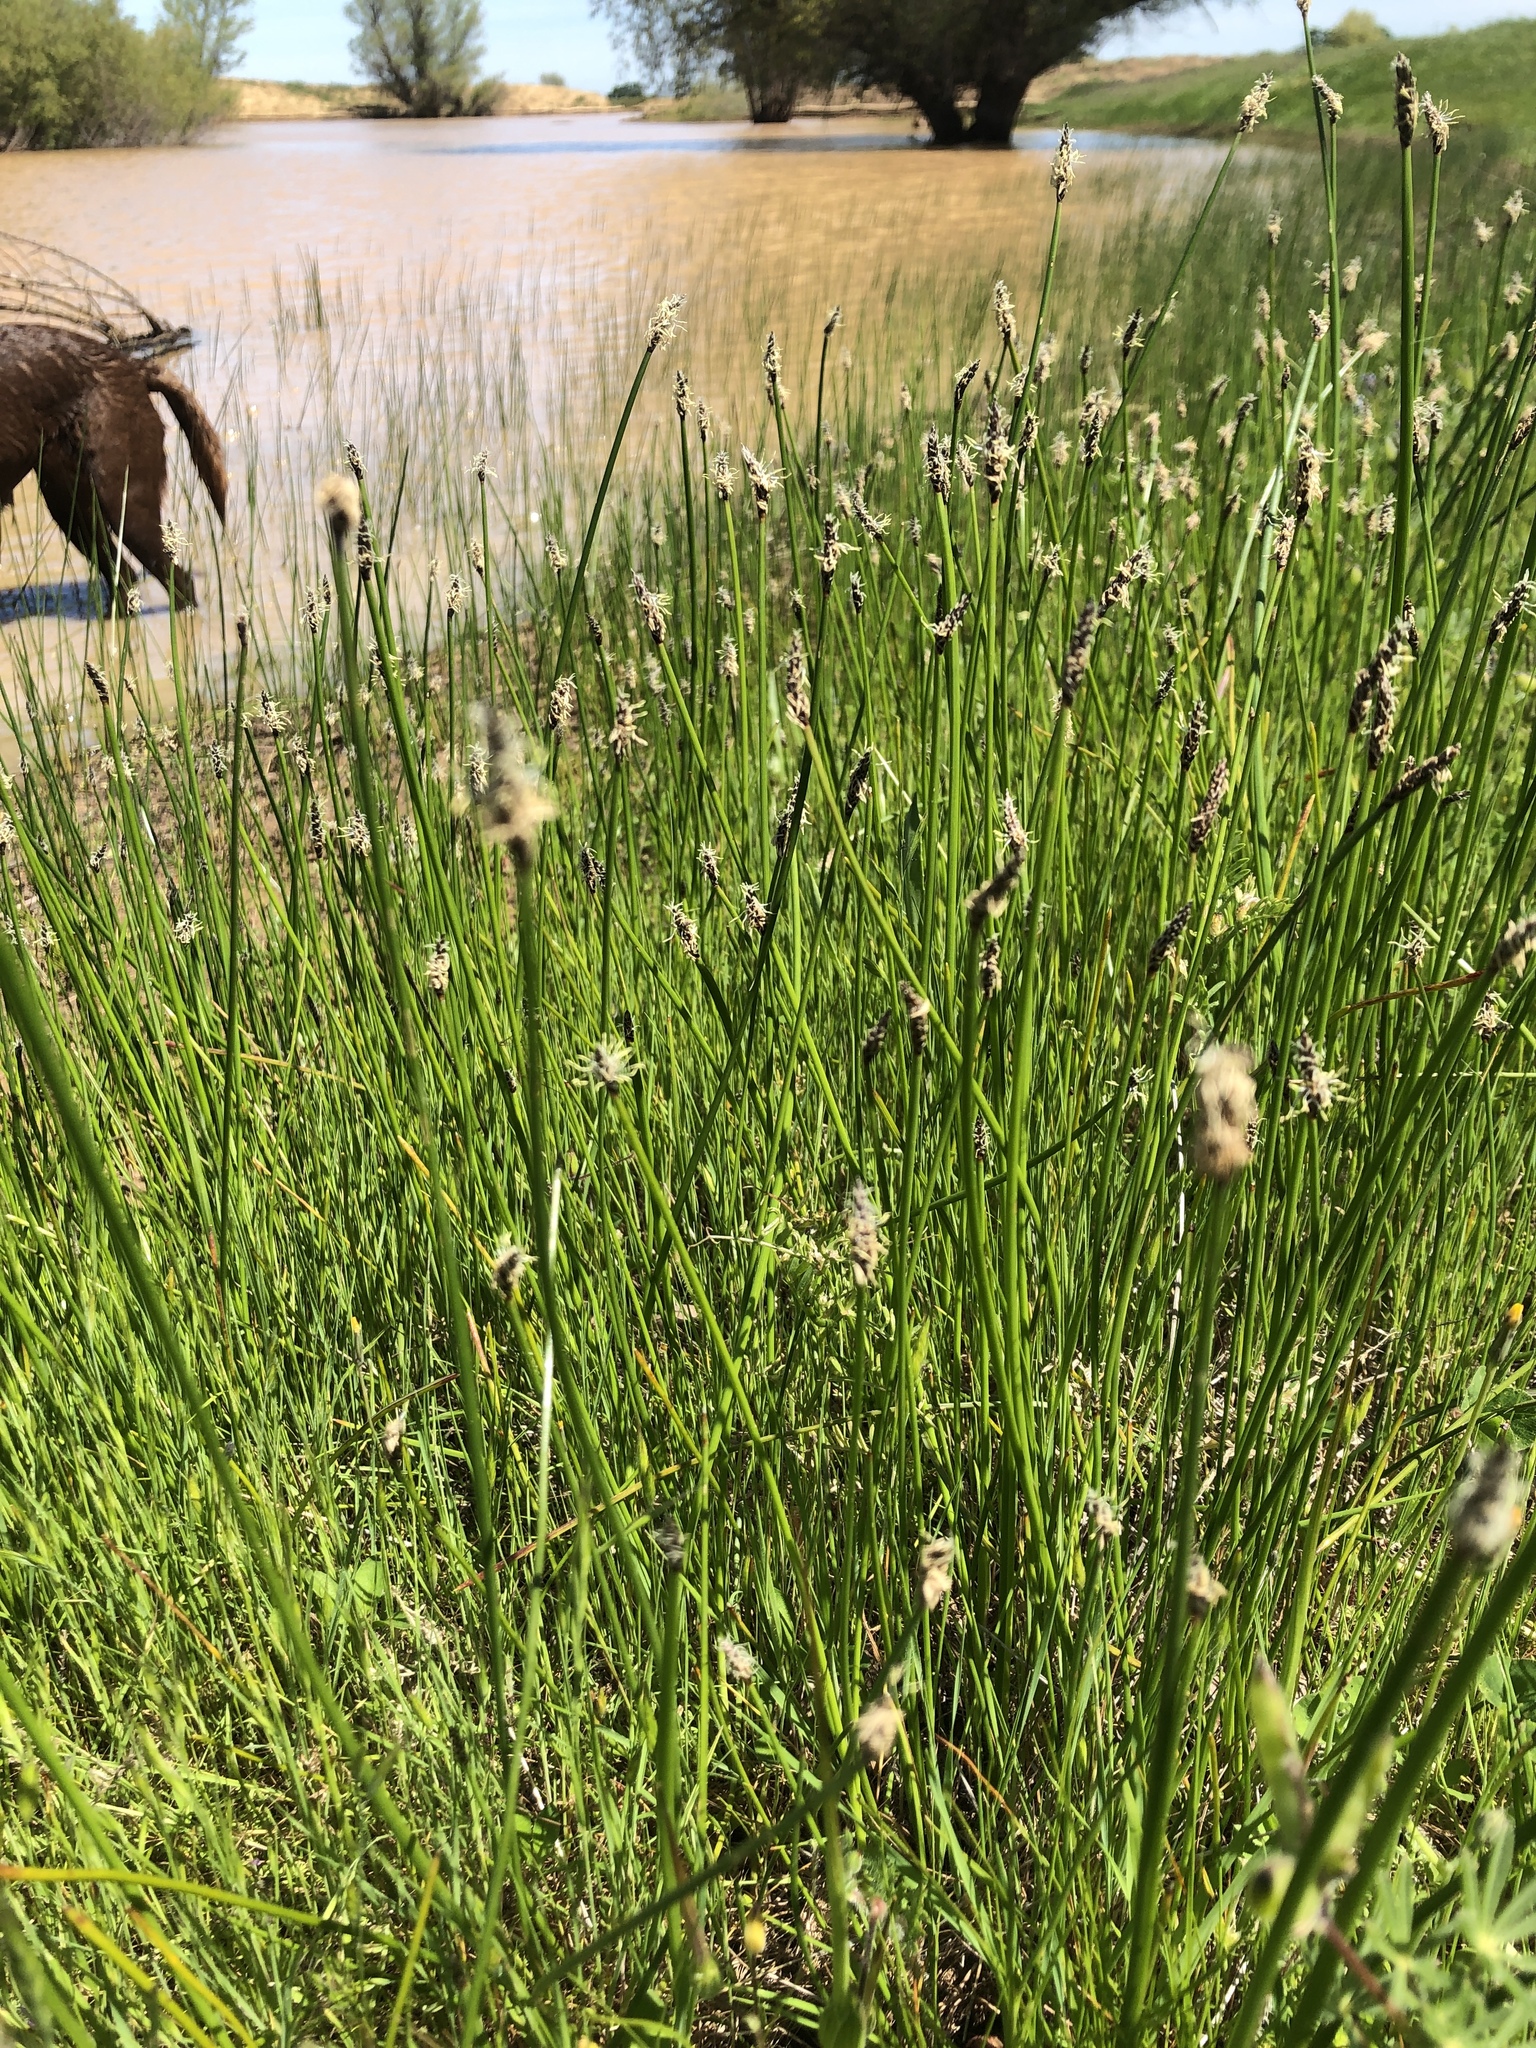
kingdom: Plantae
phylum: Tracheophyta
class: Liliopsida
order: Poales
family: Cyperaceae
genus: Eleocharis
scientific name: Eleocharis palustris
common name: Common spike-rush
